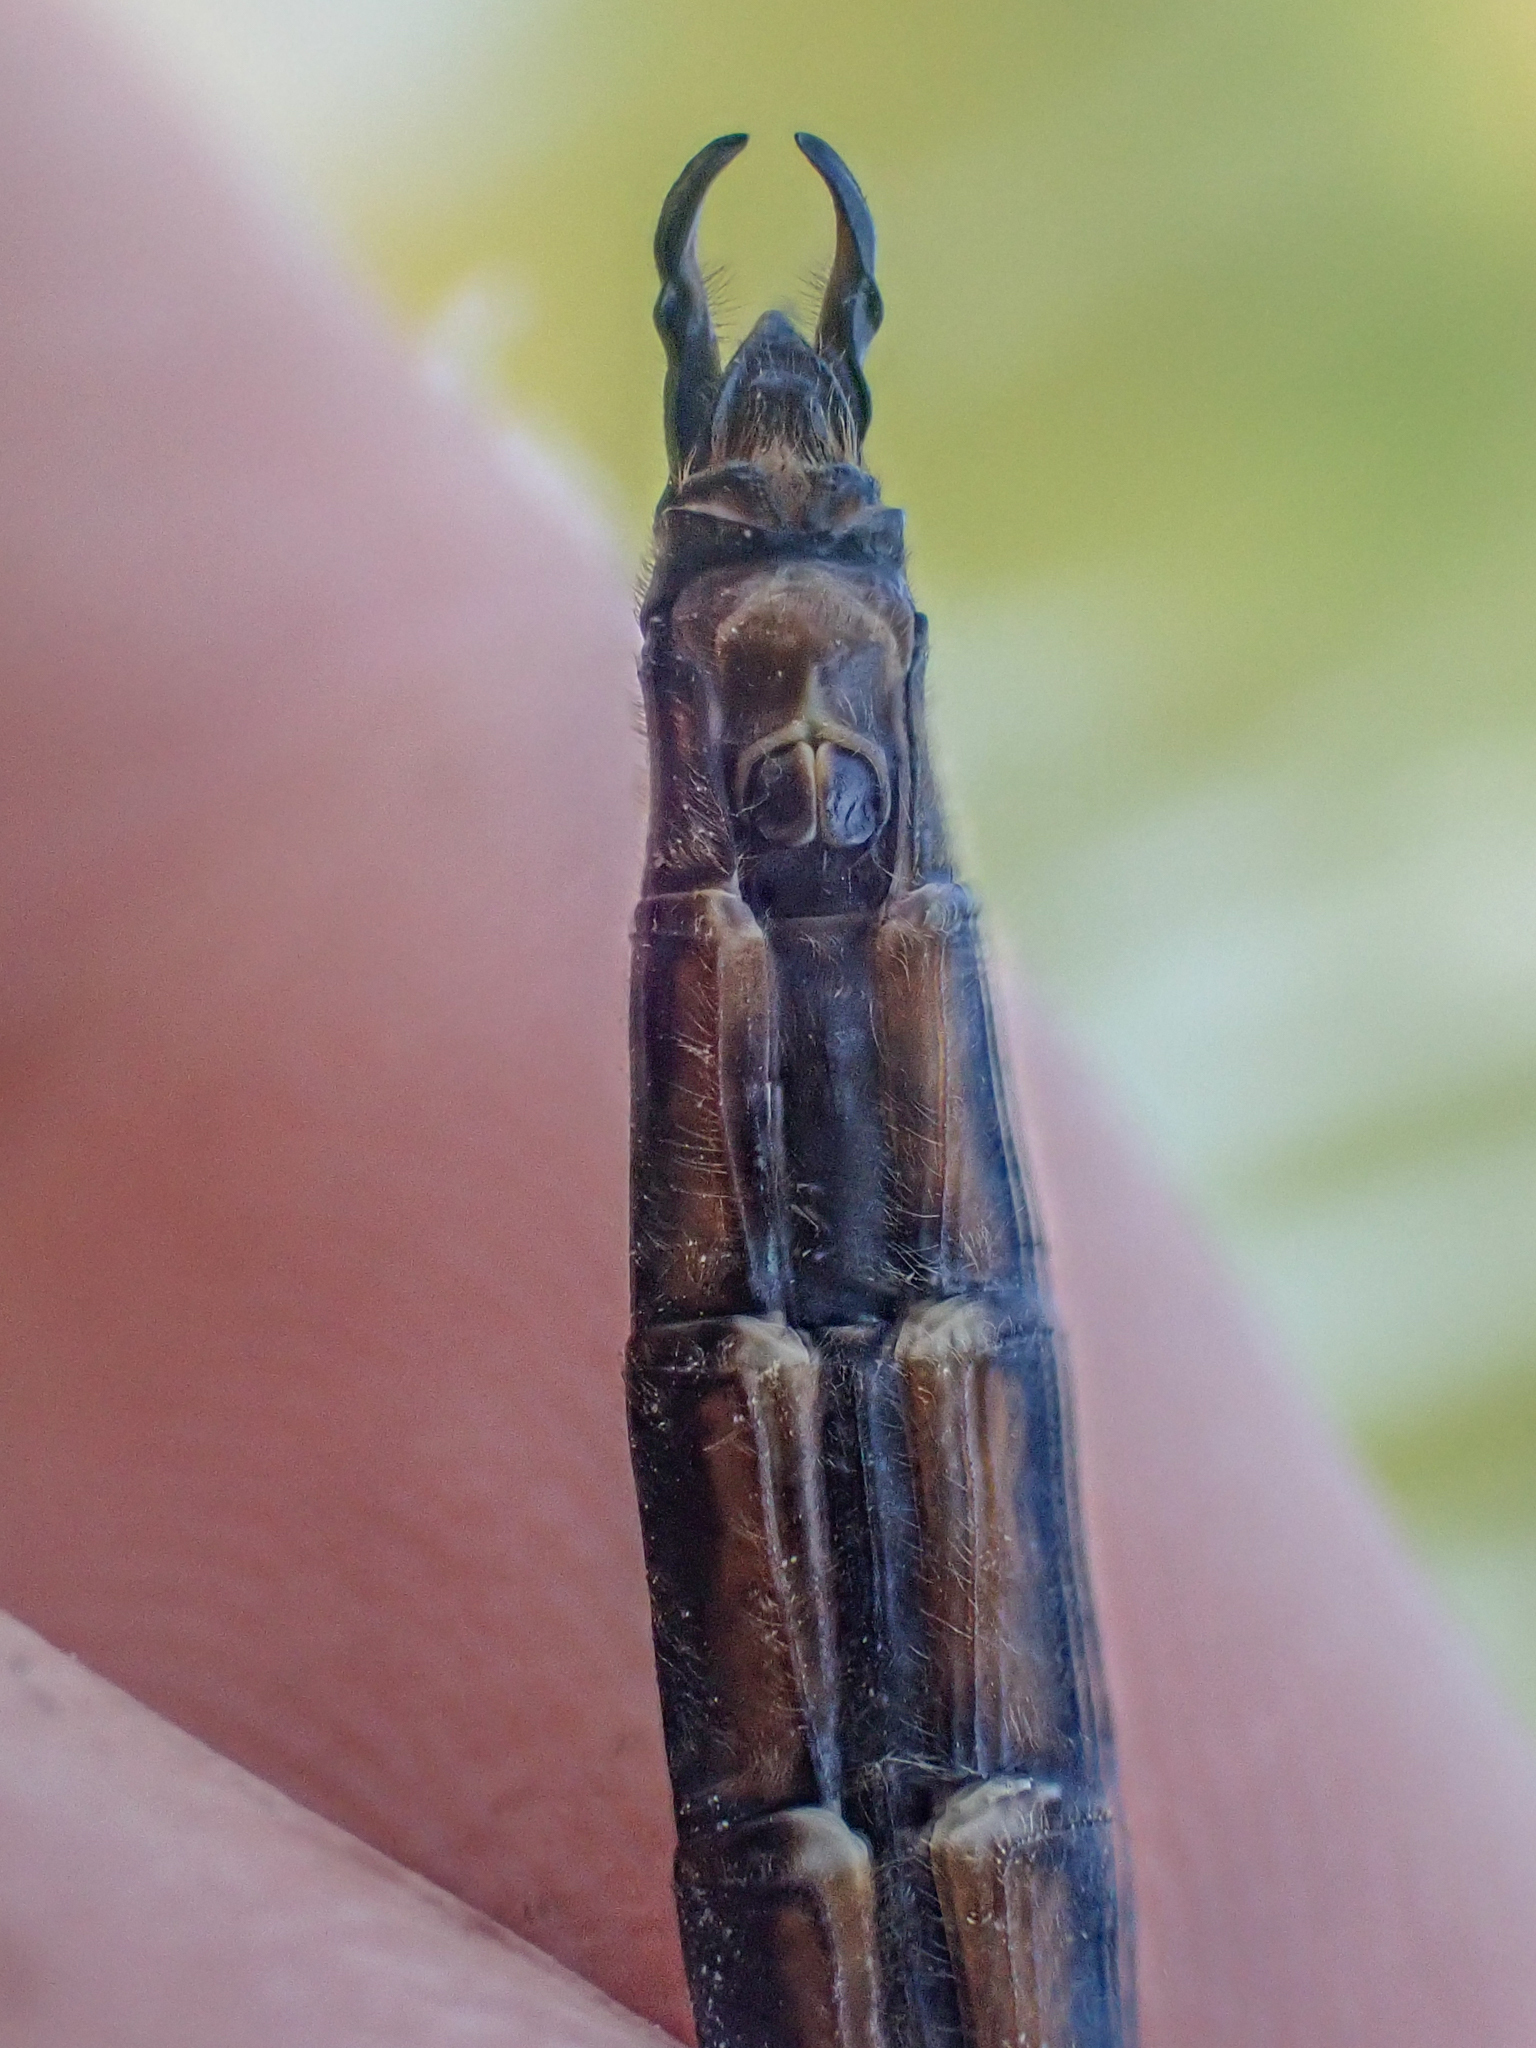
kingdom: Animalia
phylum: Arthropoda
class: Insecta
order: Odonata
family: Corduliidae
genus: Somatochlora
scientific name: Somatochlora semicircularis
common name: Mountain emerald
